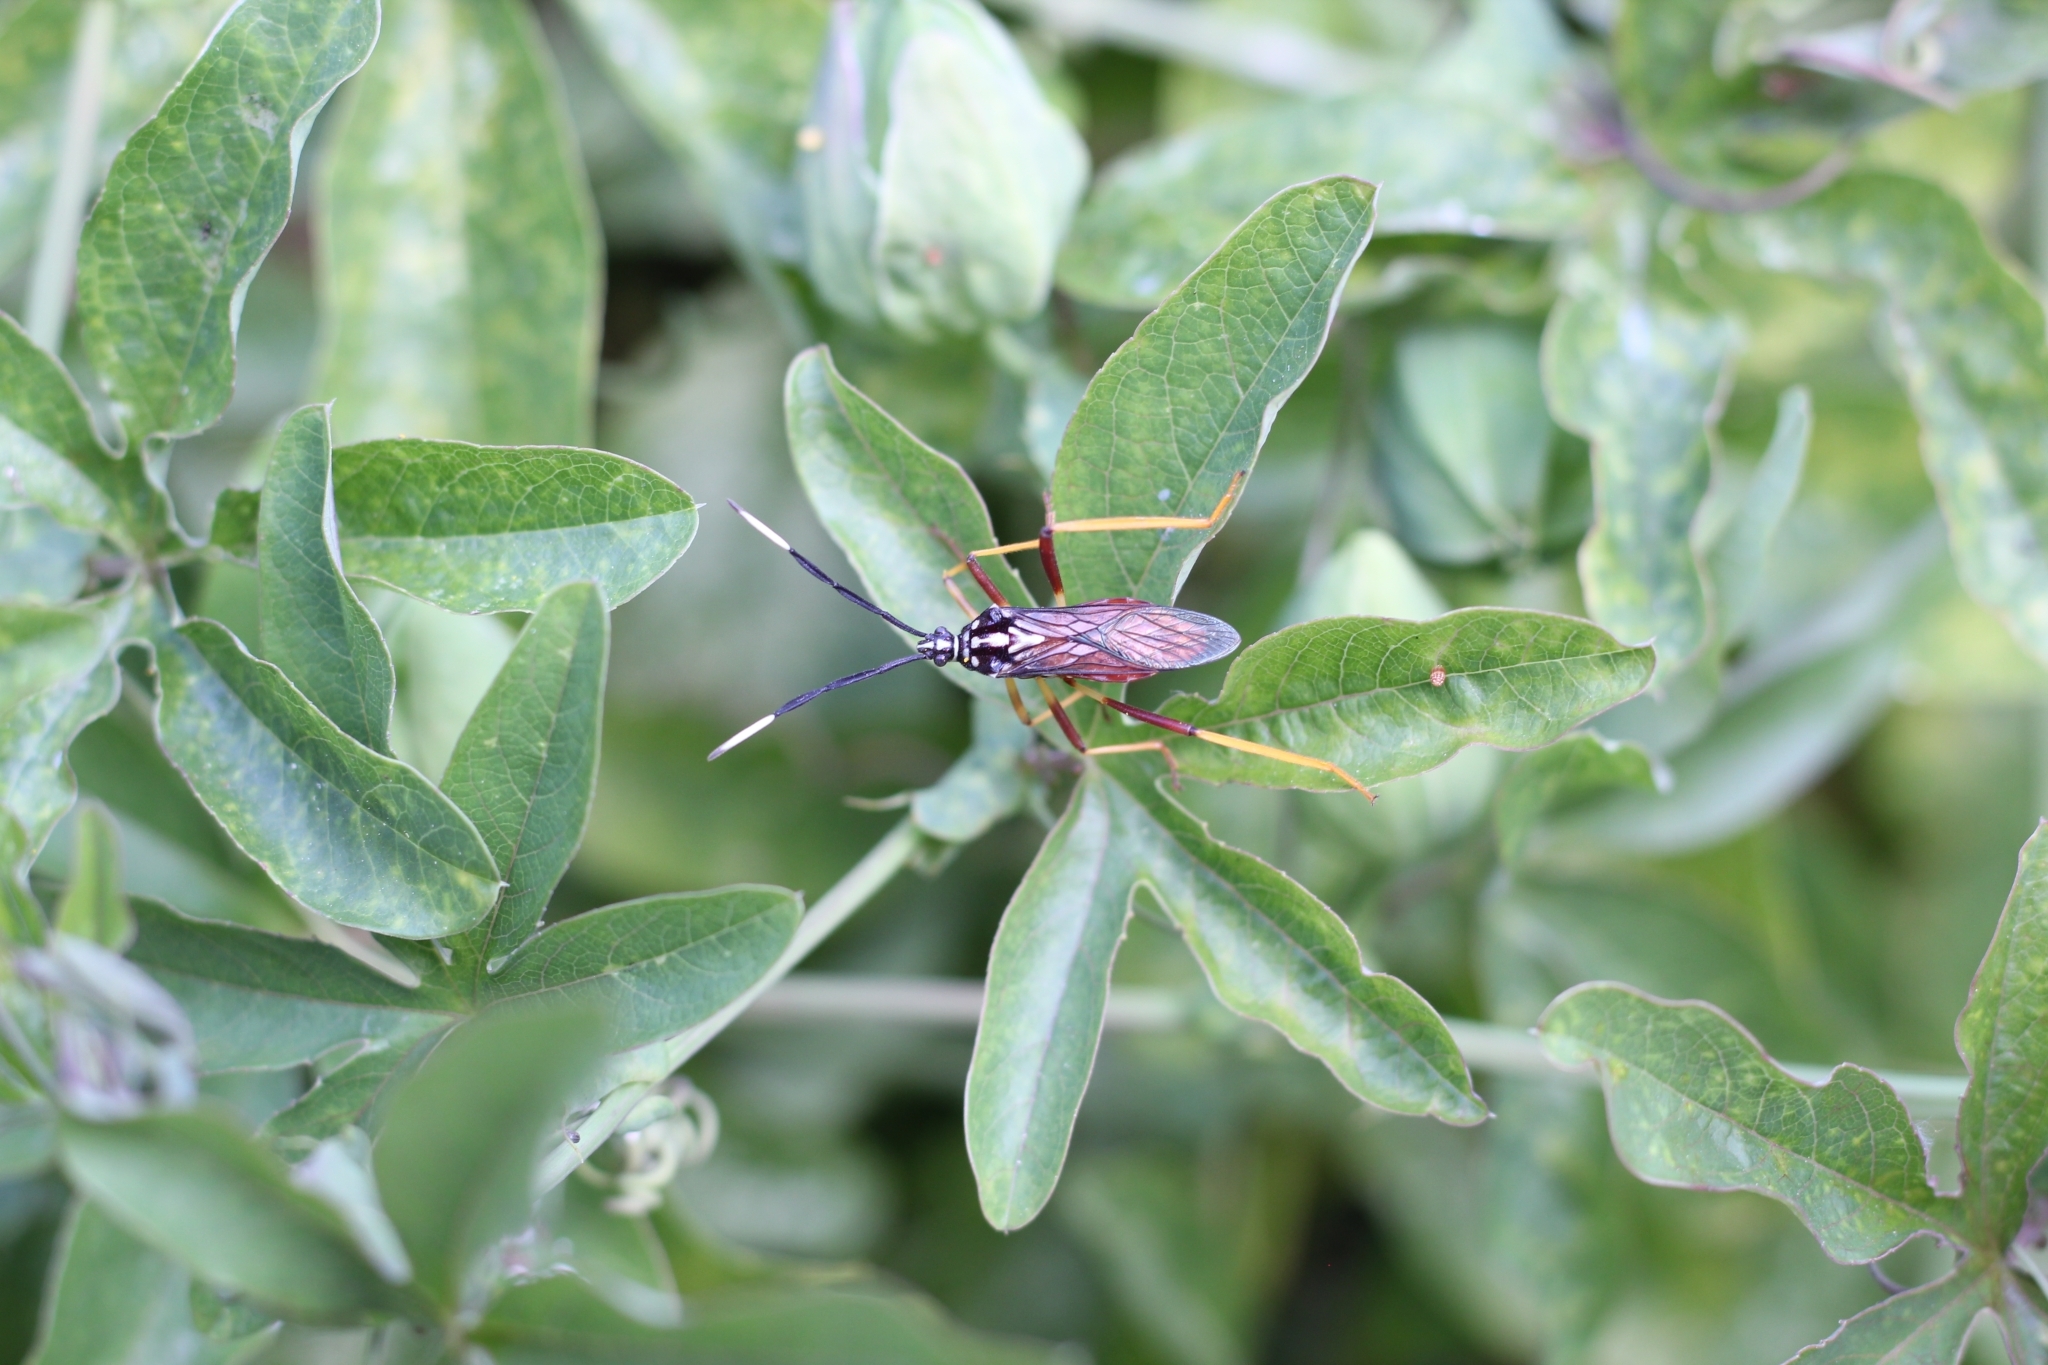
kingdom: Animalia
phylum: Arthropoda
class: Insecta
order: Hemiptera
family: Coreidae
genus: Holhymenia
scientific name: Holhymenia histrio
